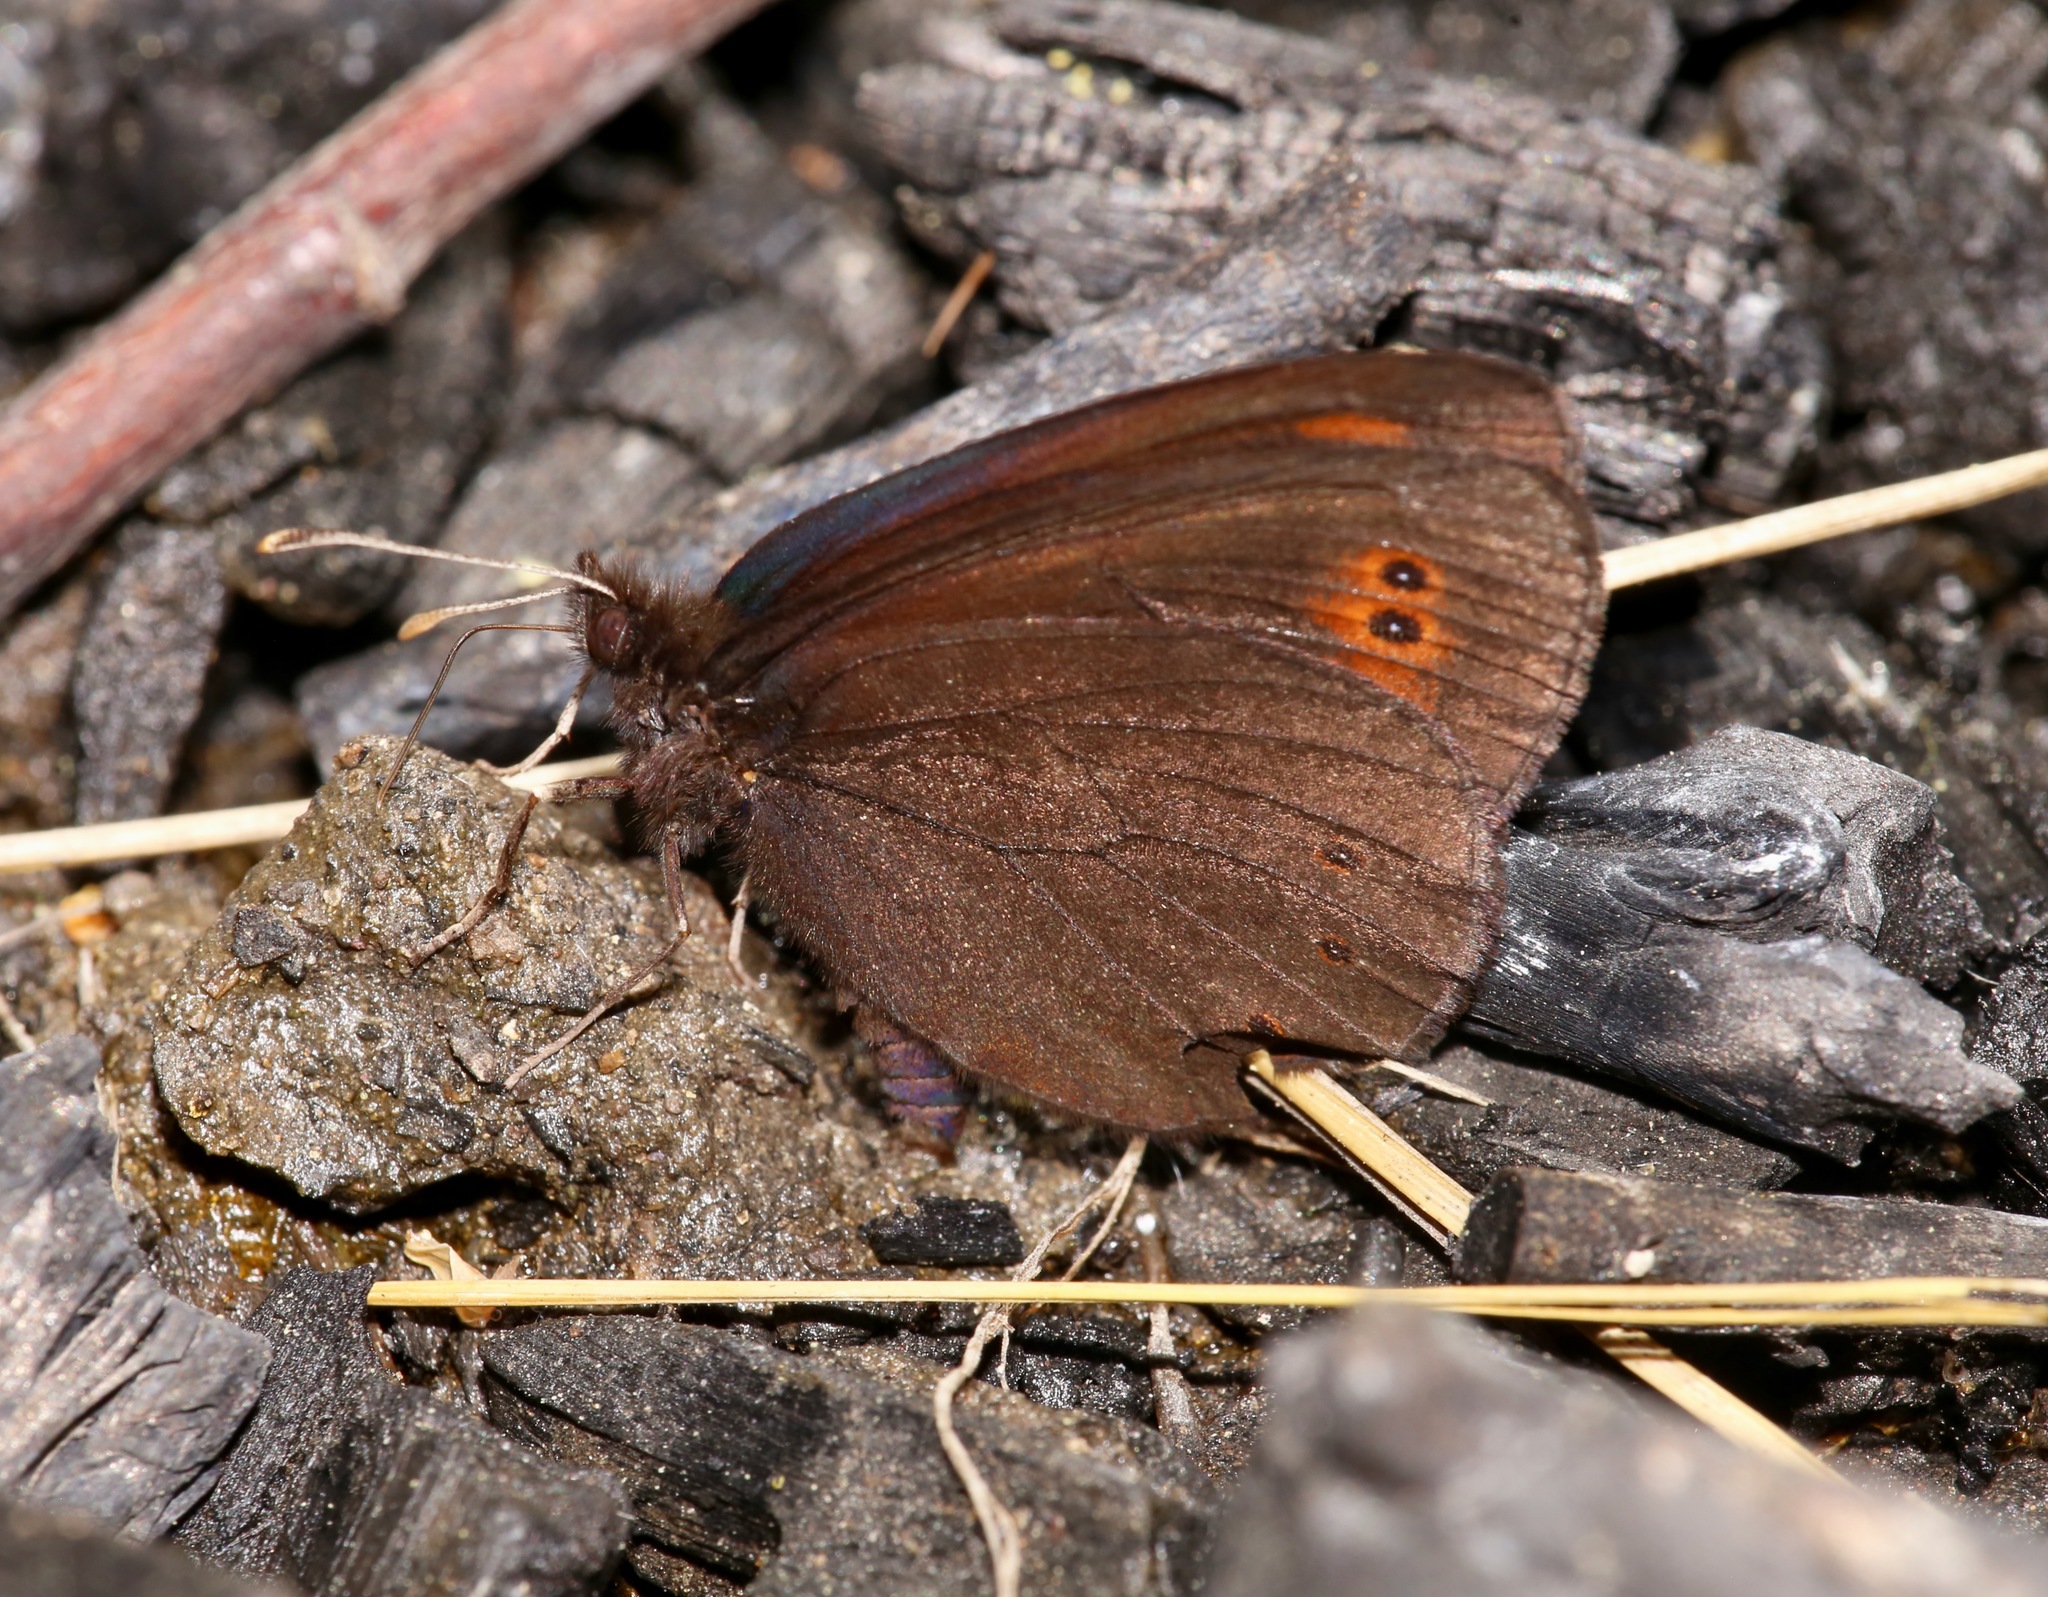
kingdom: Animalia
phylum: Arthropoda
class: Insecta
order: Lepidoptera
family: Nymphalidae
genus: Erebia
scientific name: Erebia epipsodea
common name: Common alpine
